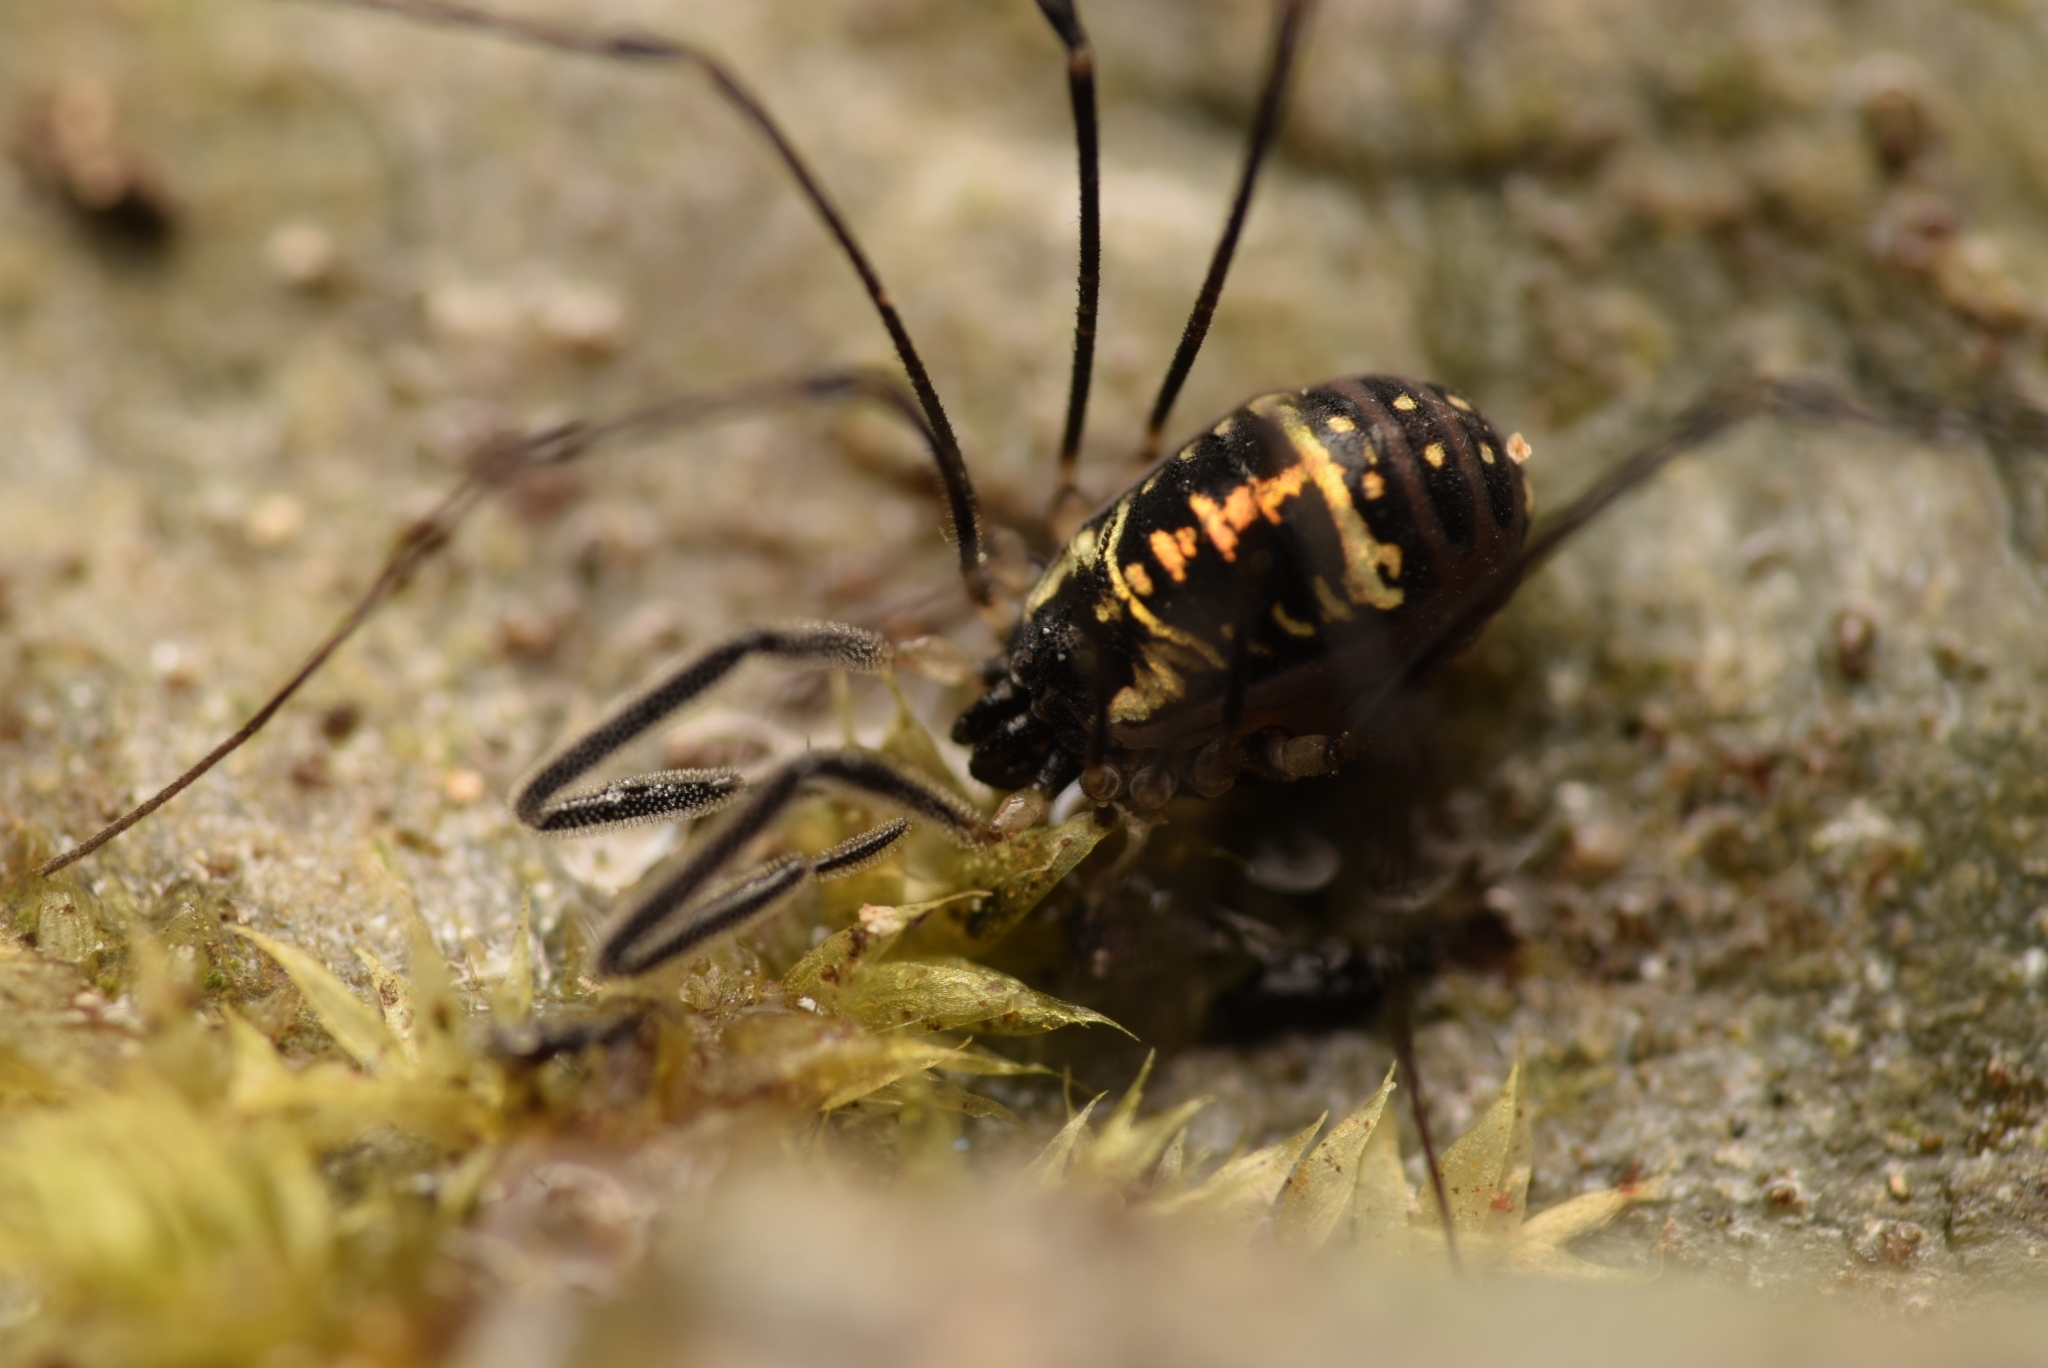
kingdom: Animalia
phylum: Arthropoda
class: Arachnida
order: Opiliones
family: Nemastomatidae
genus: Mitostoma
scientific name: Mitostoma pyrenaeum
